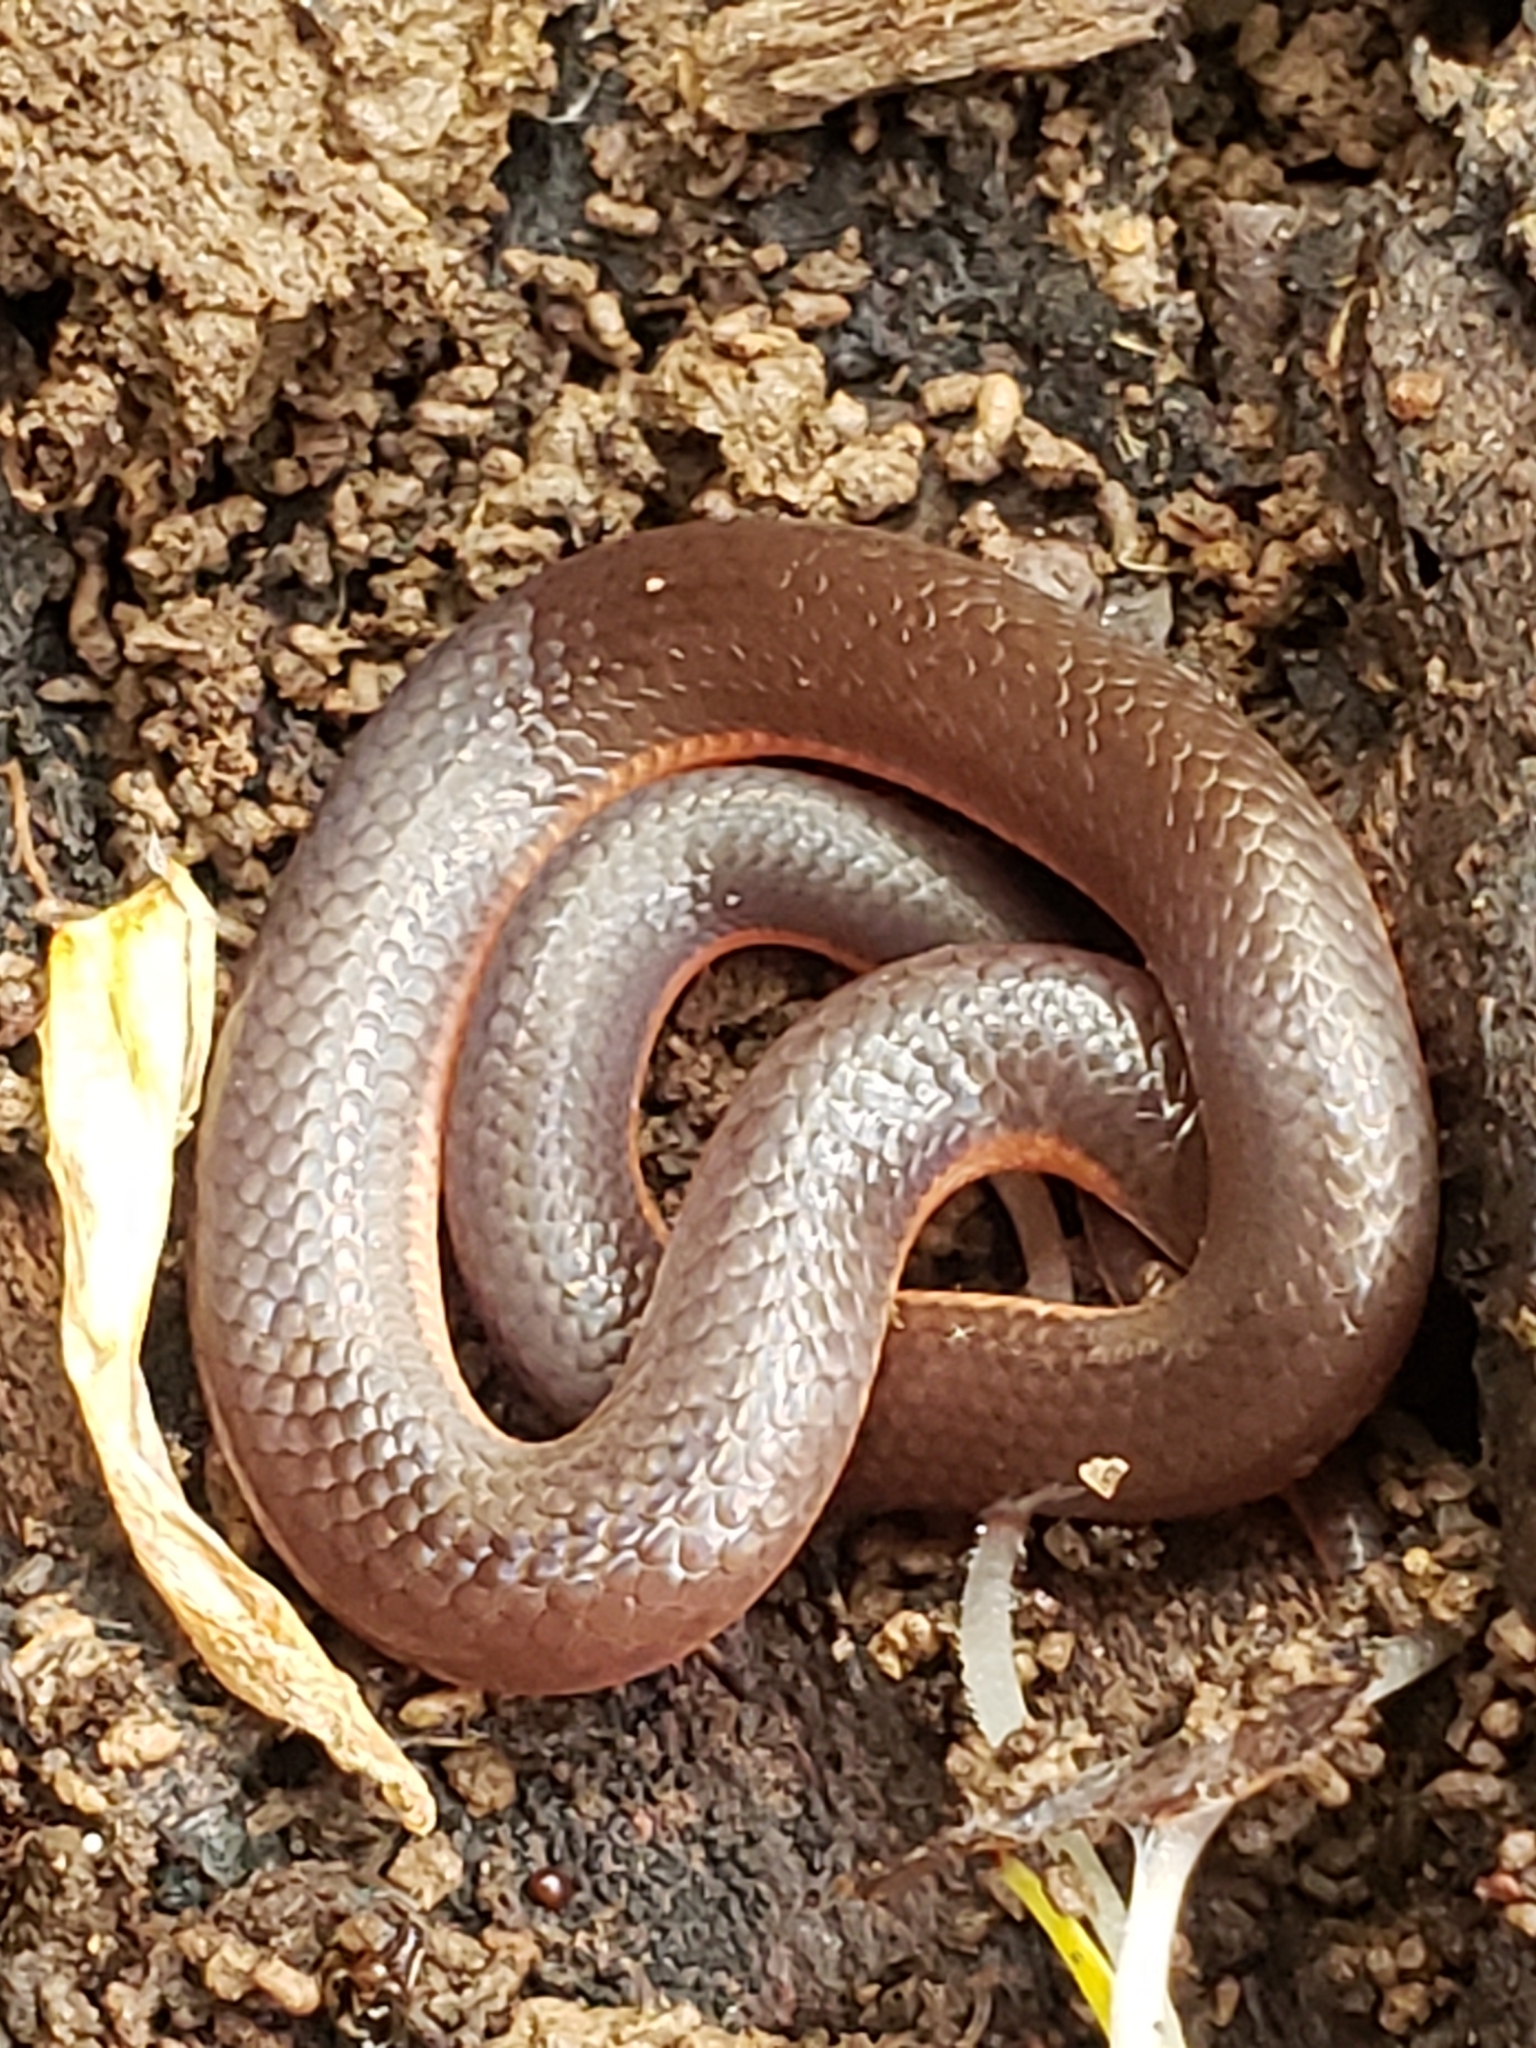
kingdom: Animalia
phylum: Chordata
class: Squamata
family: Colubridae
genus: Carphophis
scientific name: Carphophis amoenus
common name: Eastern worm snake
